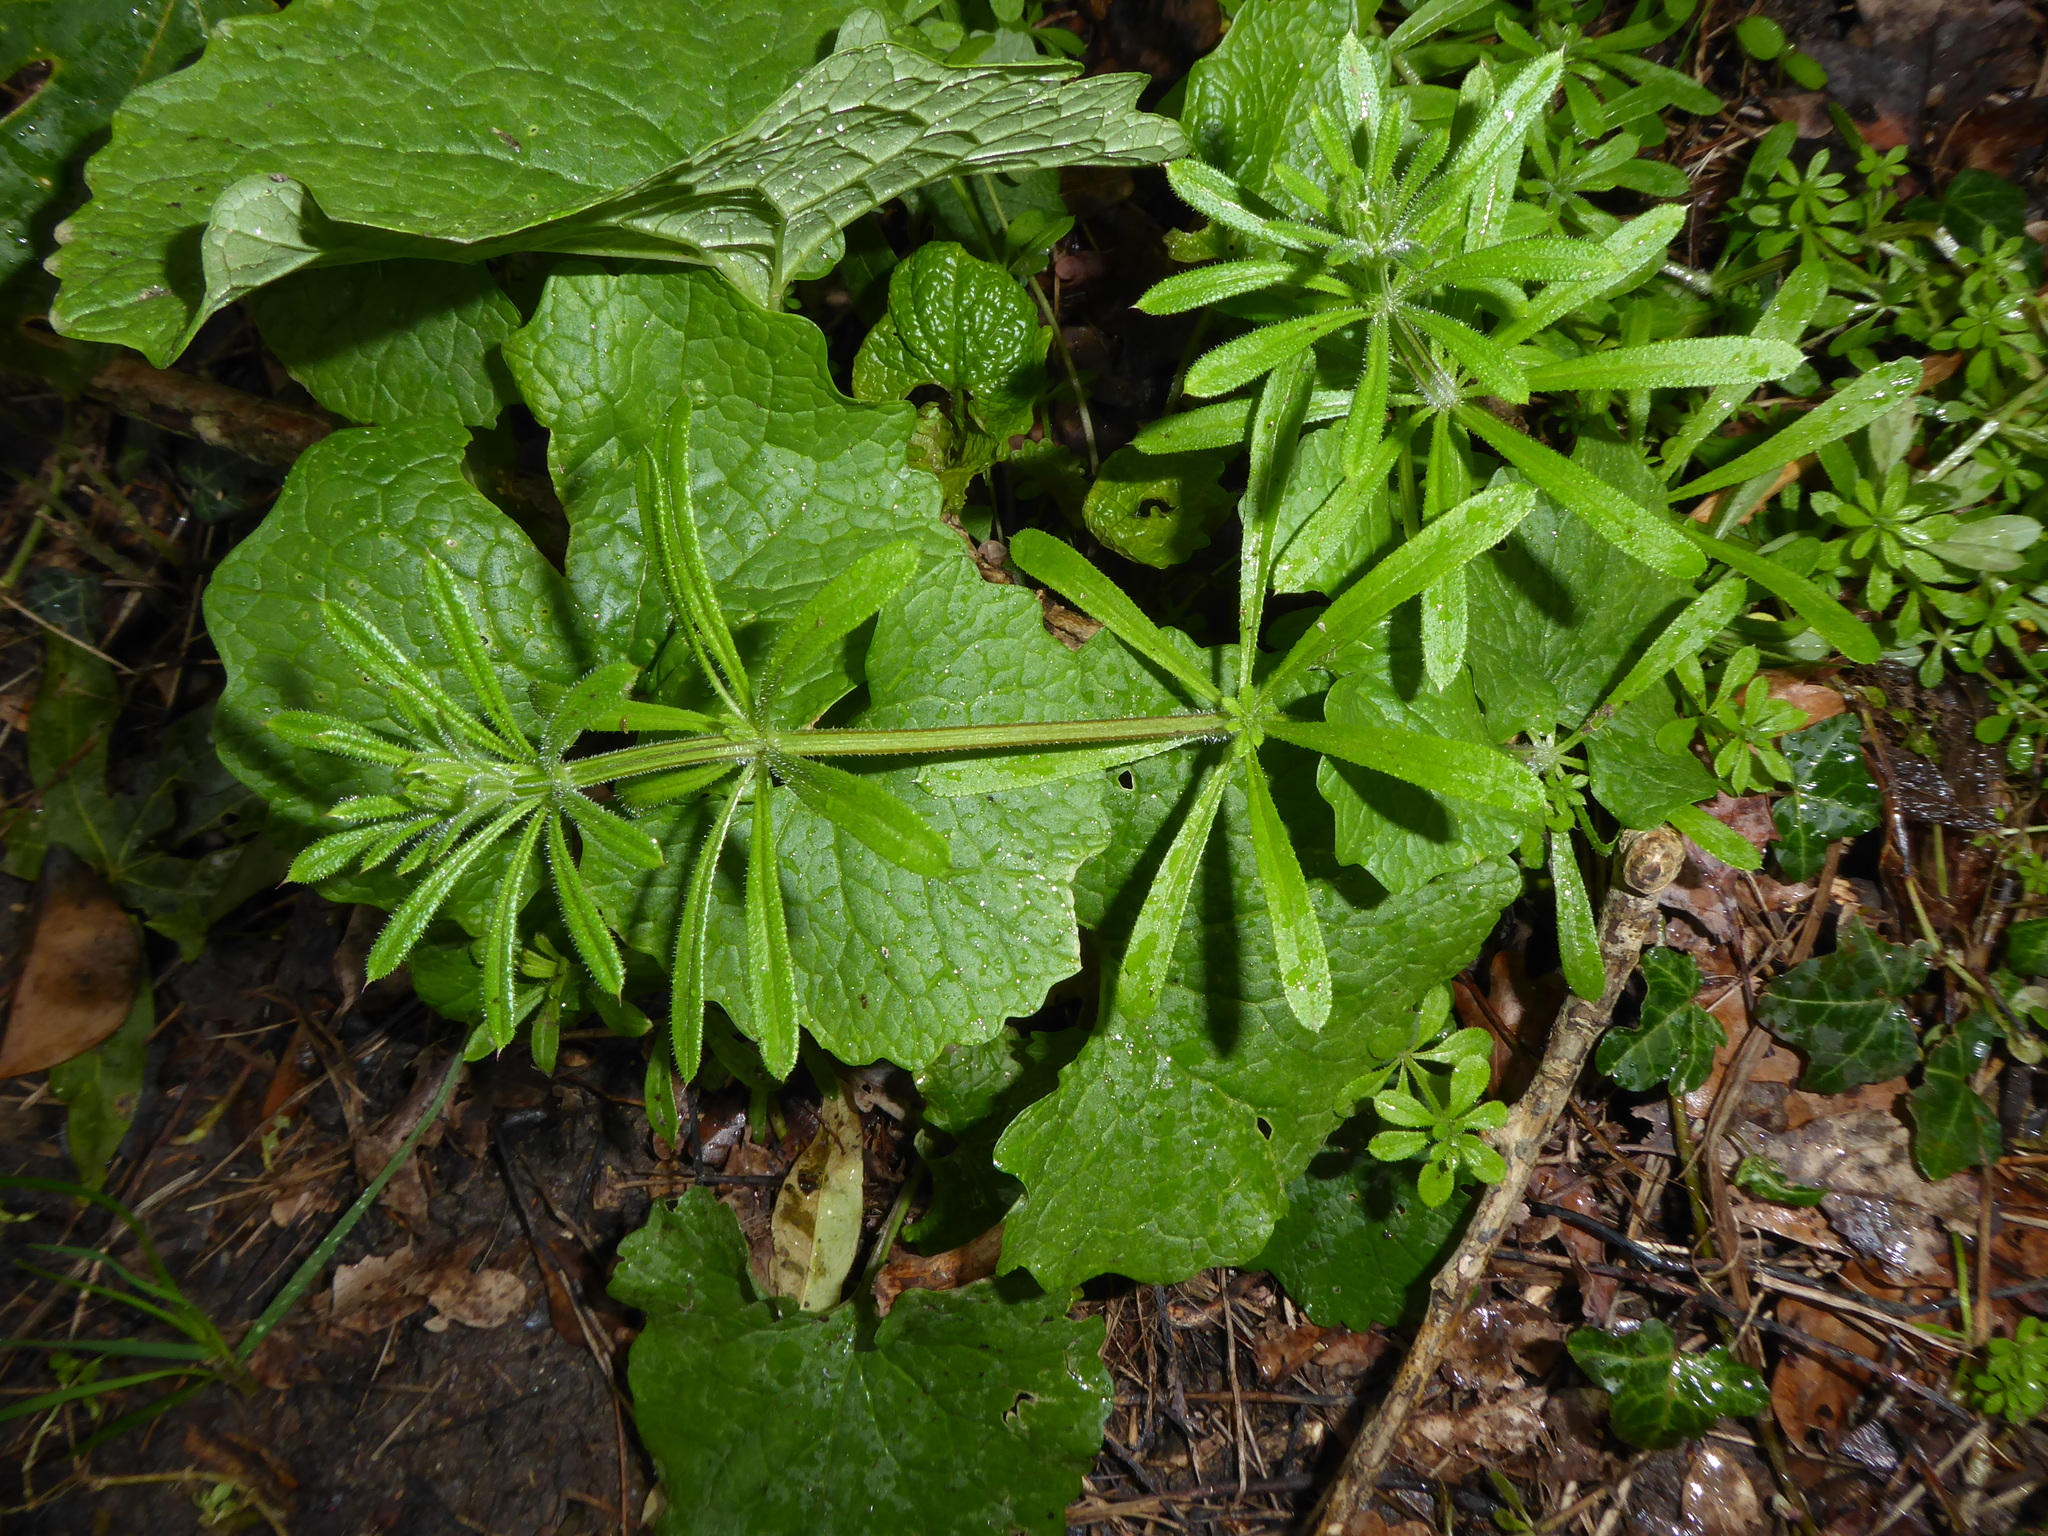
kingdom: Plantae
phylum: Tracheophyta
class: Magnoliopsida
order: Gentianales
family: Rubiaceae
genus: Galium
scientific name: Galium aparine
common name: Cleavers
